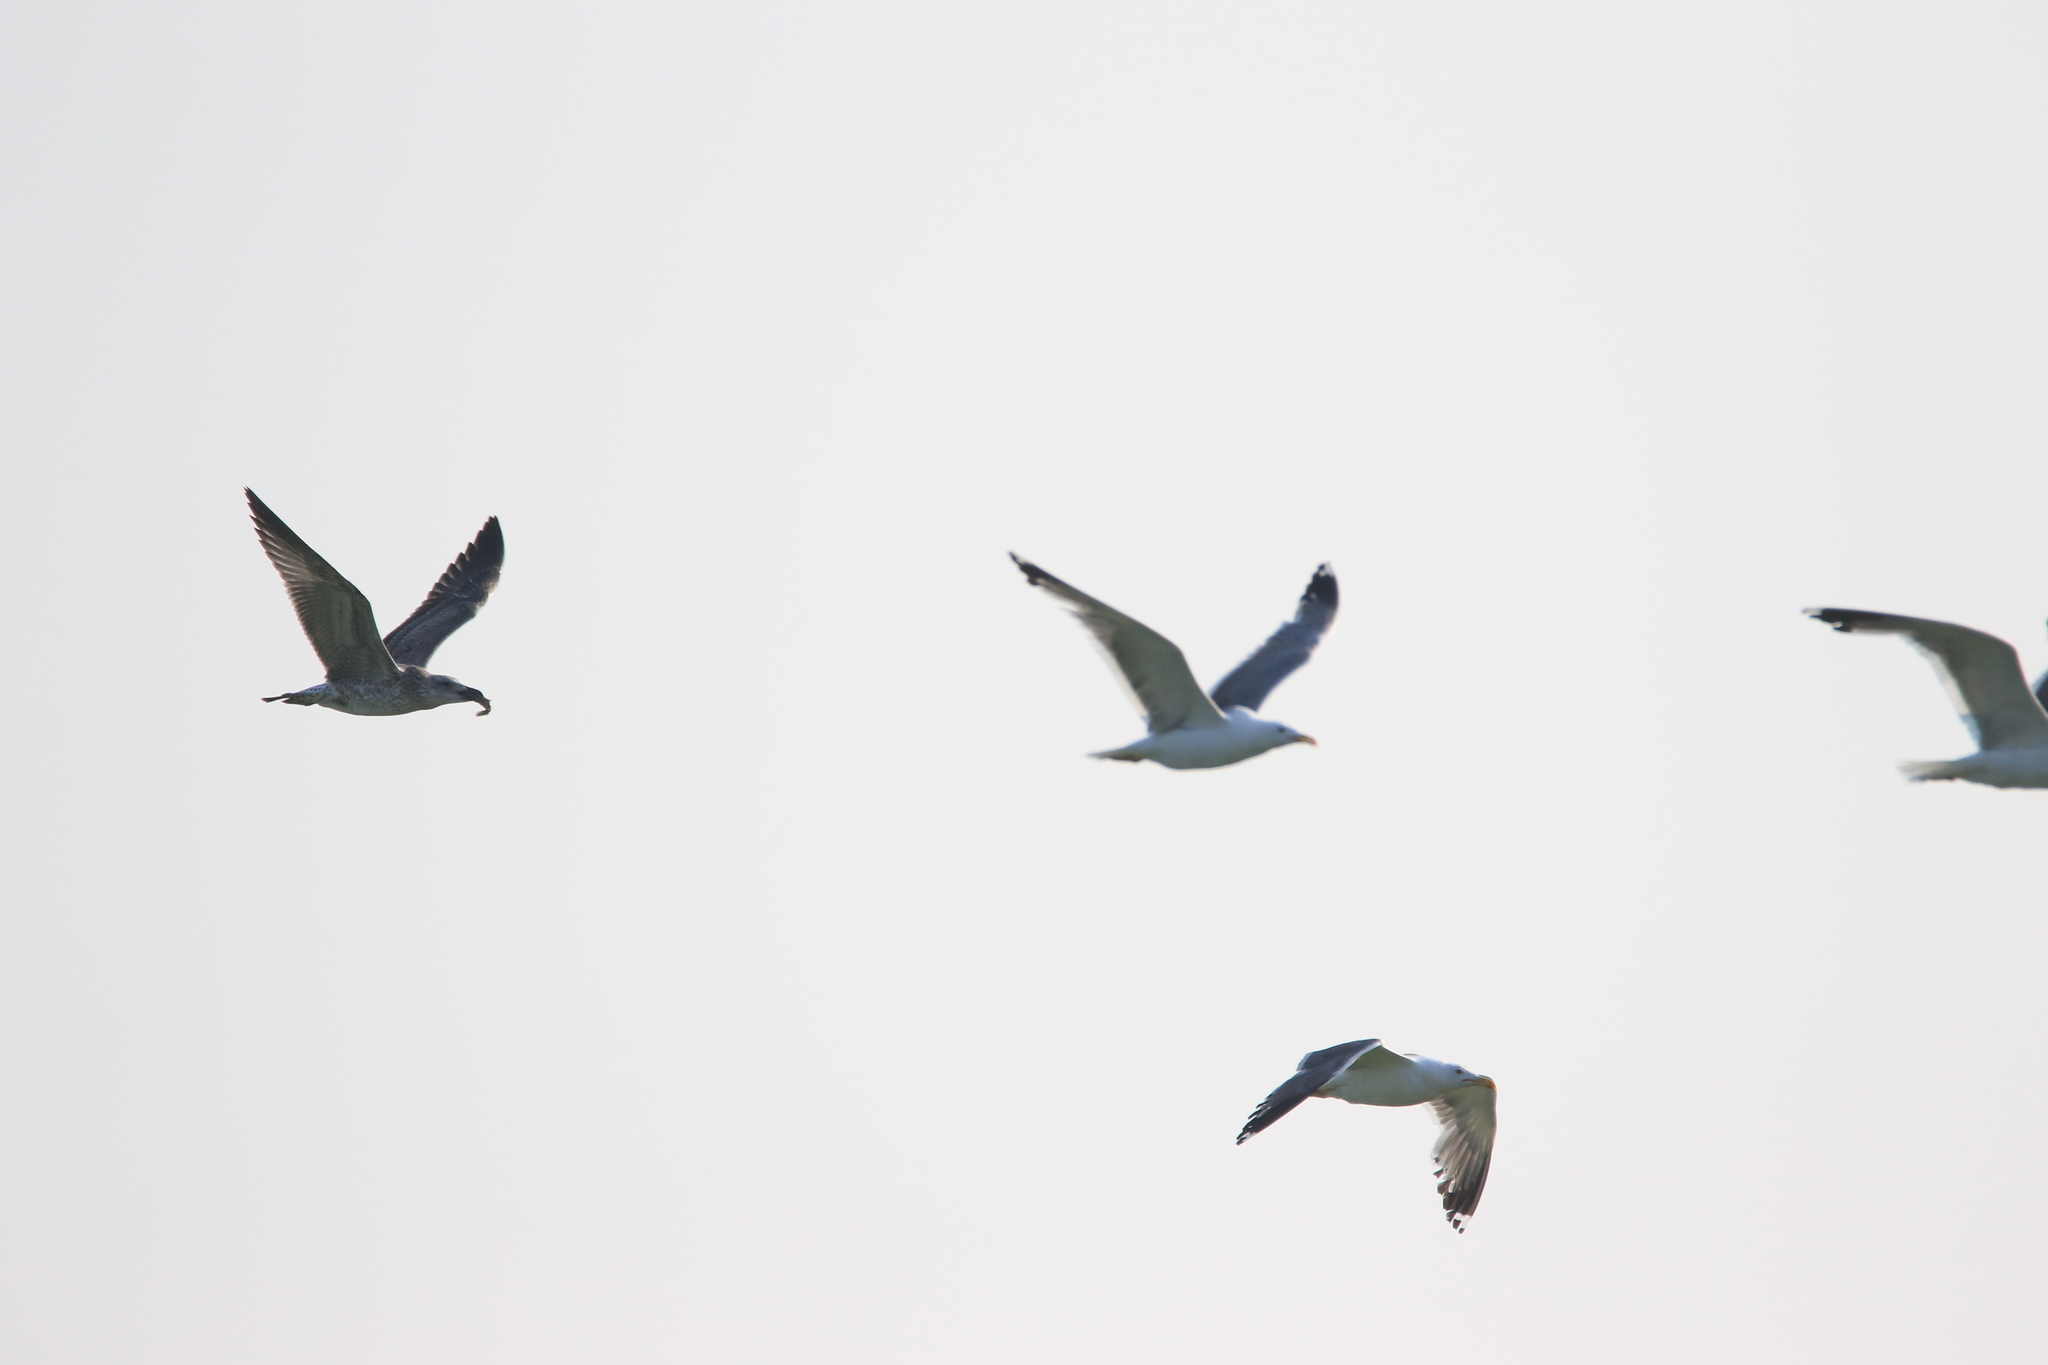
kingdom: Animalia
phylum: Chordata
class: Aves
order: Charadriiformes
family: Laridae
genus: Larus
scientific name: Larus fuscus
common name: Lesser black-backed gull
